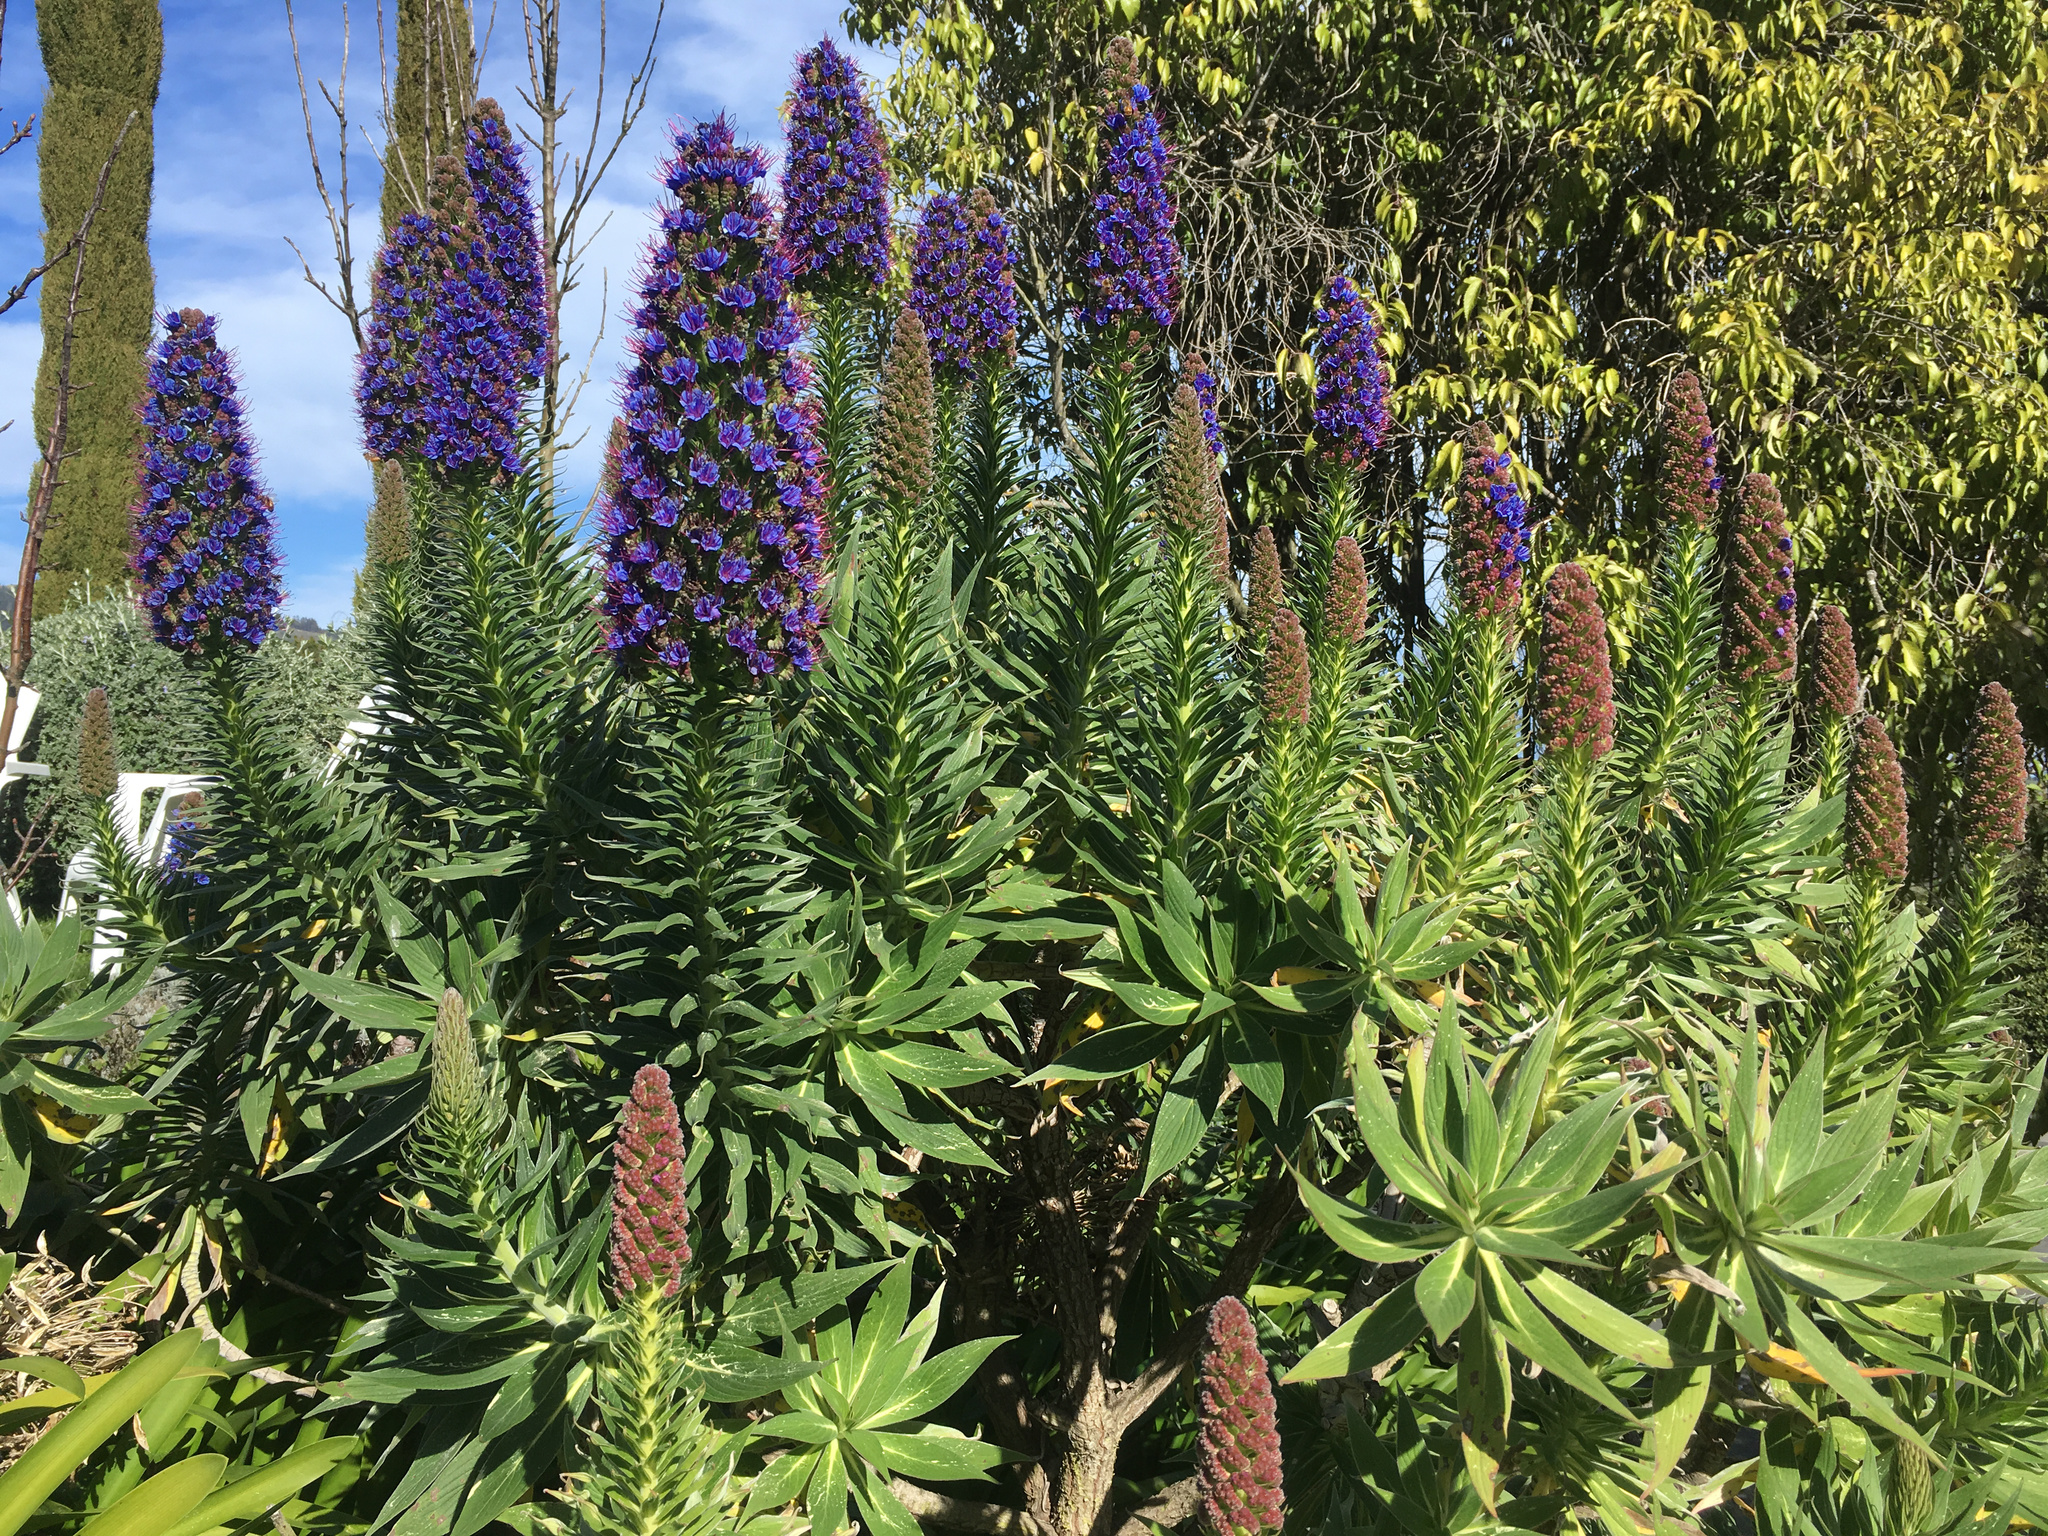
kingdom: Plantae
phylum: Tracheophyta
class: Magnoliopsida
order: Boraginales
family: Boraginaceae
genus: Echium
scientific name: Echium candicans
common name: Pride of madeira
